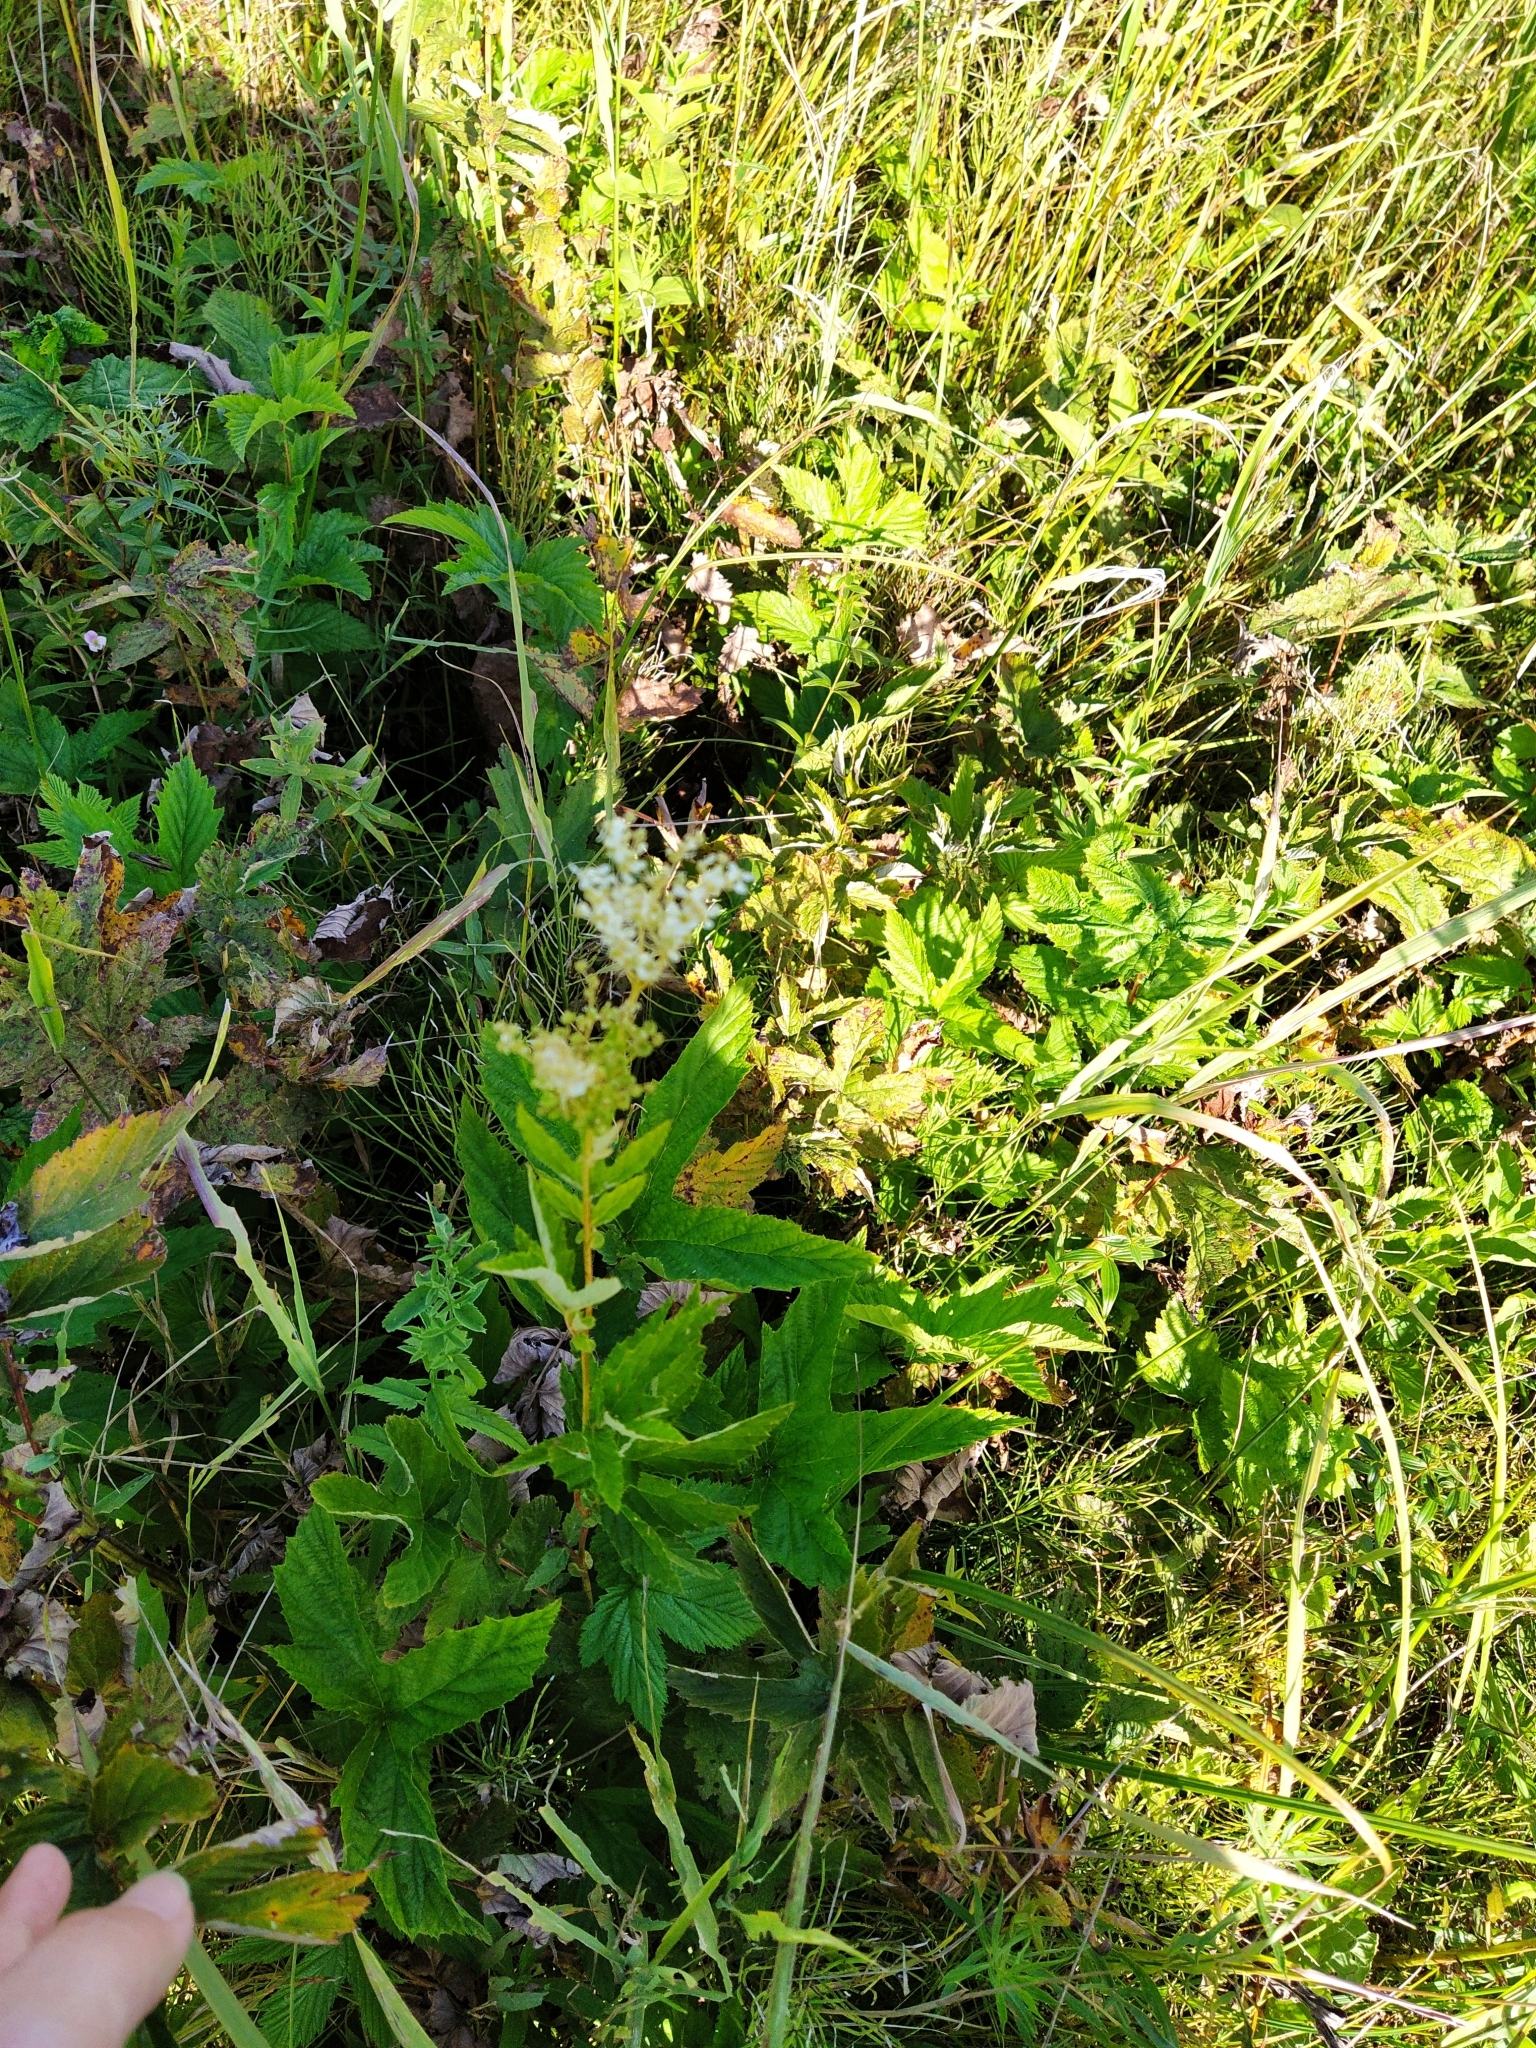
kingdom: Plantae
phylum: Tracheophyta
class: Magnoliopsida
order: Rosales
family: Rosaceae
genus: Filipendula
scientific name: Filipendula ulmaria
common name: Meadowsweet
